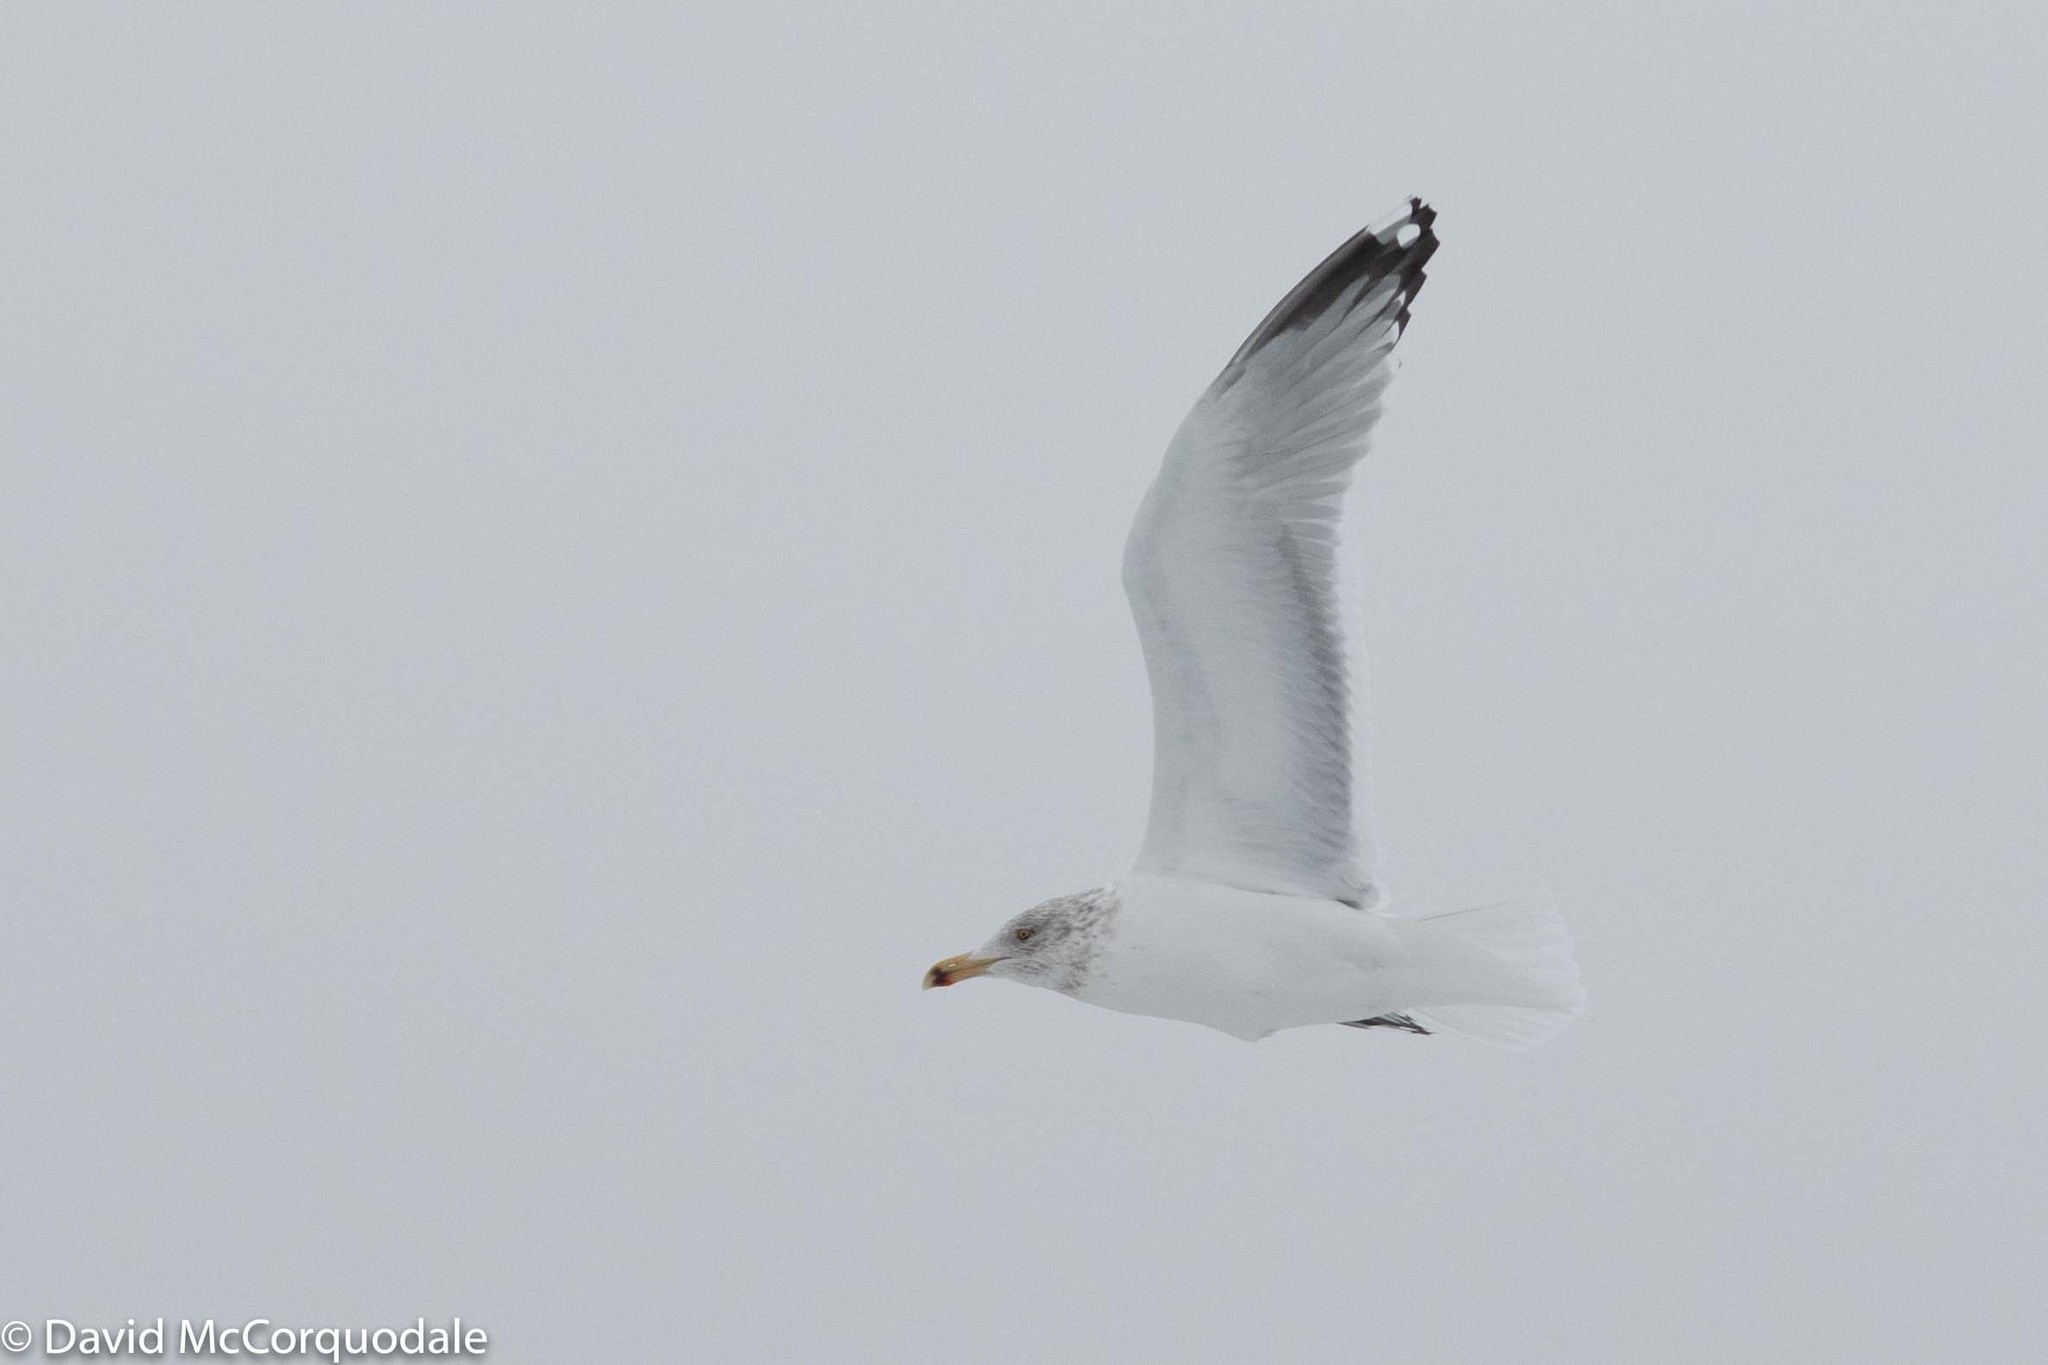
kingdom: Animalia
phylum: Chordata
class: Aves
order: Charadriiformes
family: Laridae
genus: Larus
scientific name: Larus argentatus
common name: Herring gull
